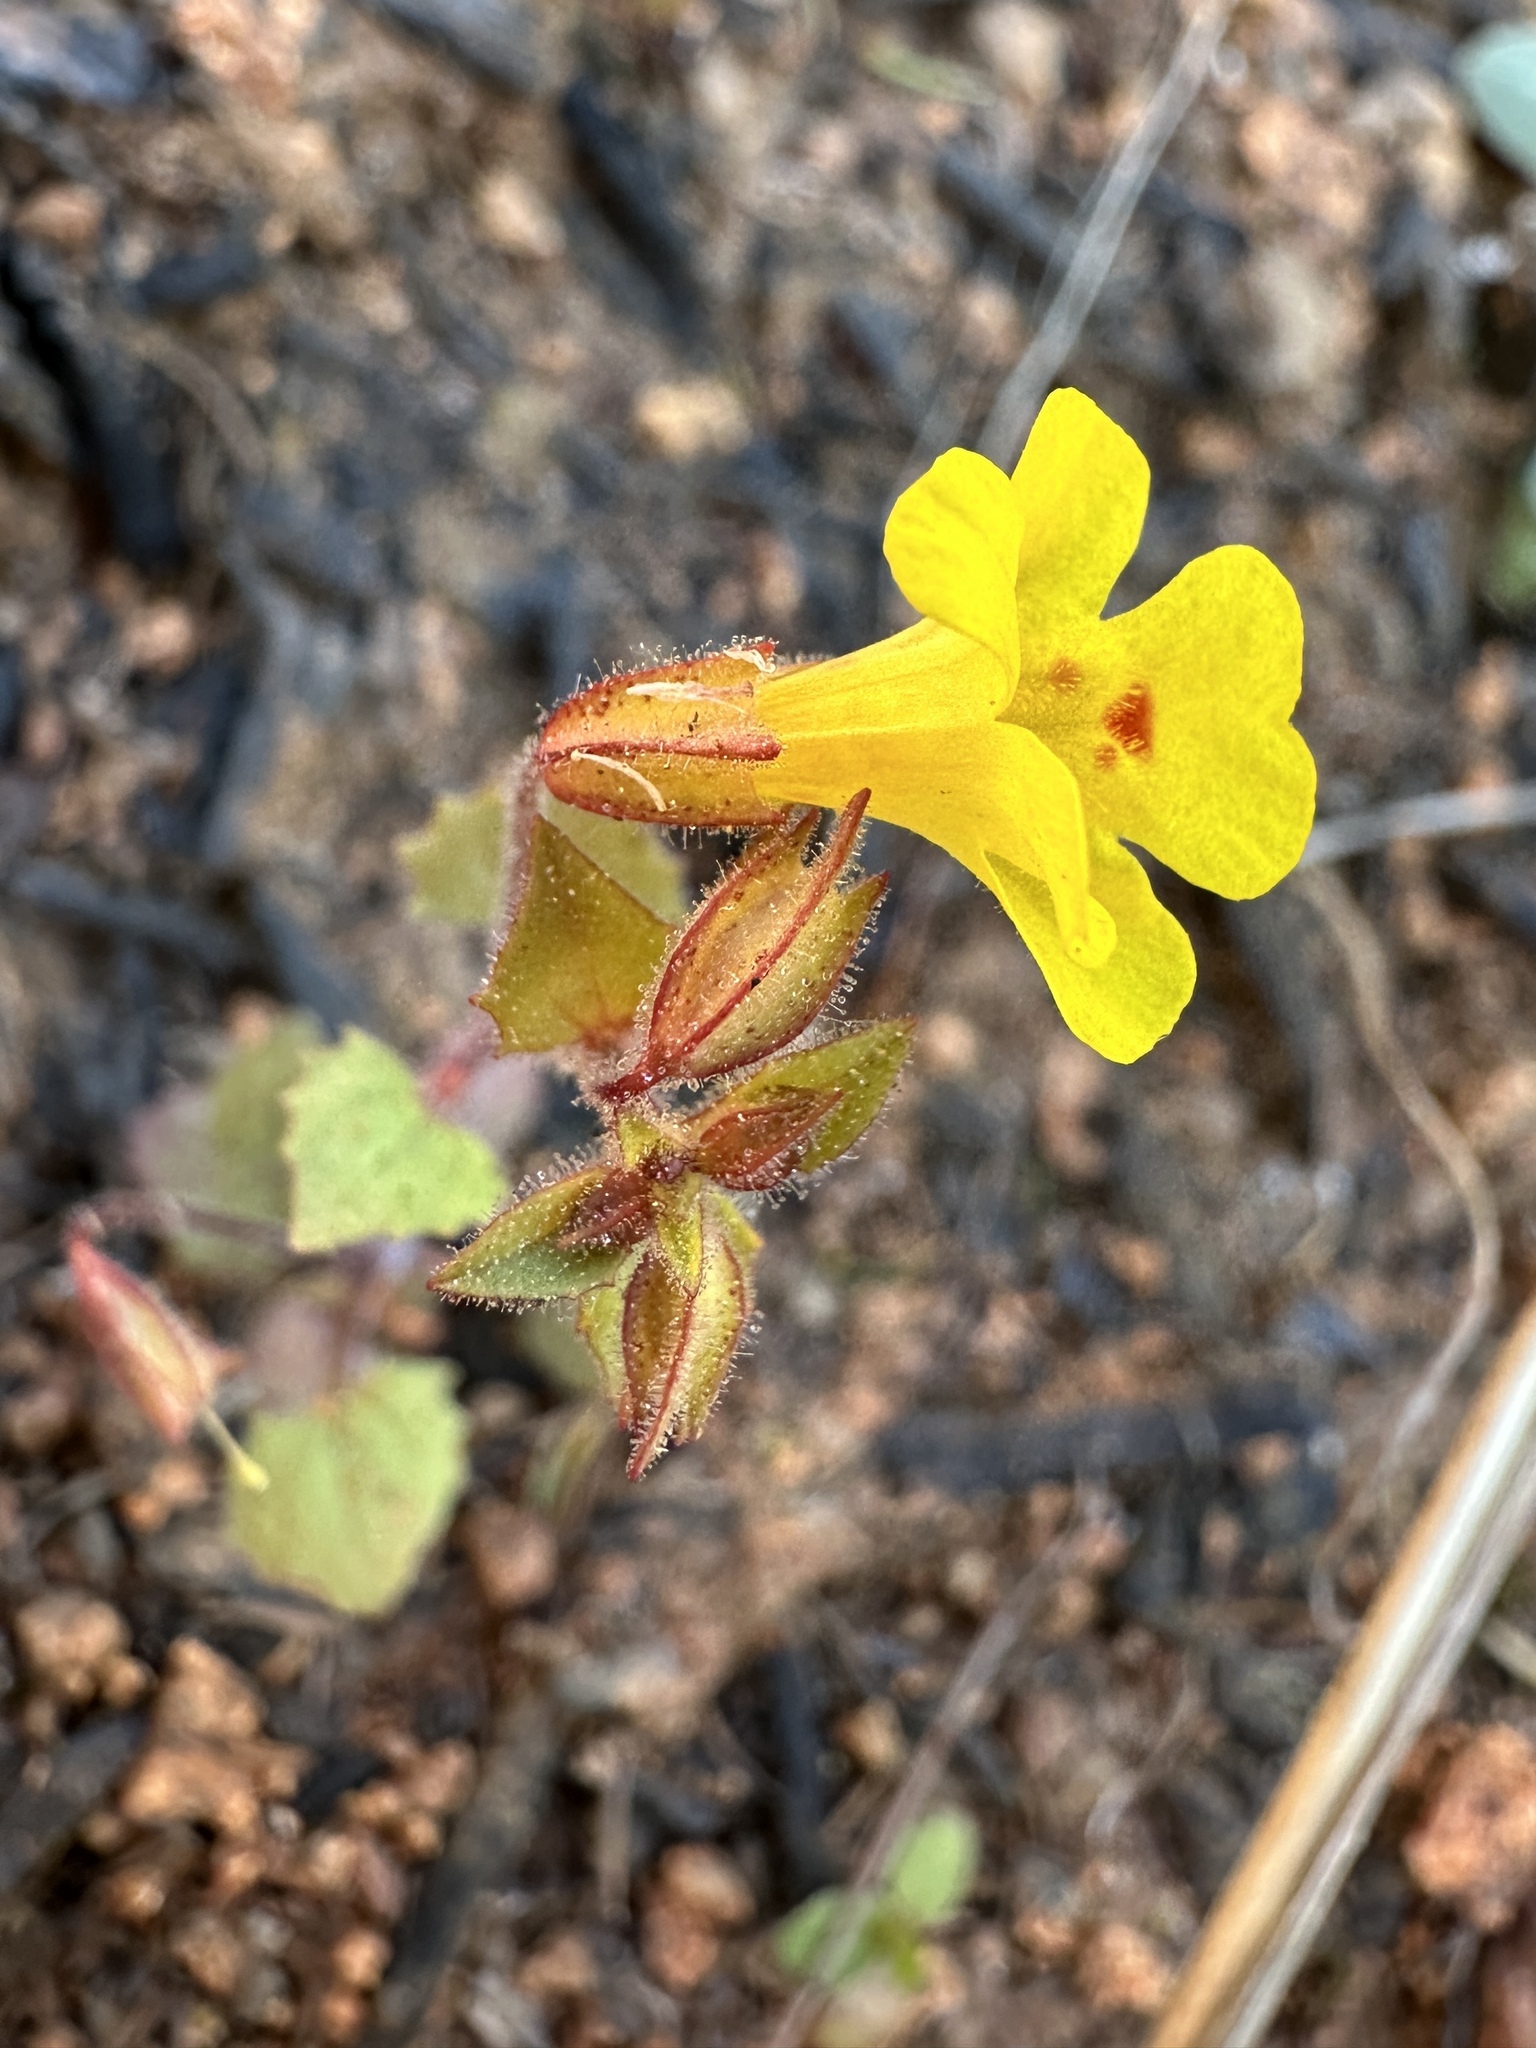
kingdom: Plantae
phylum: Tracheophyta
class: Magnoliopsida
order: Lamiales
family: Phrymaceae
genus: Erythranthe
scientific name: Erythranthe marmorata
